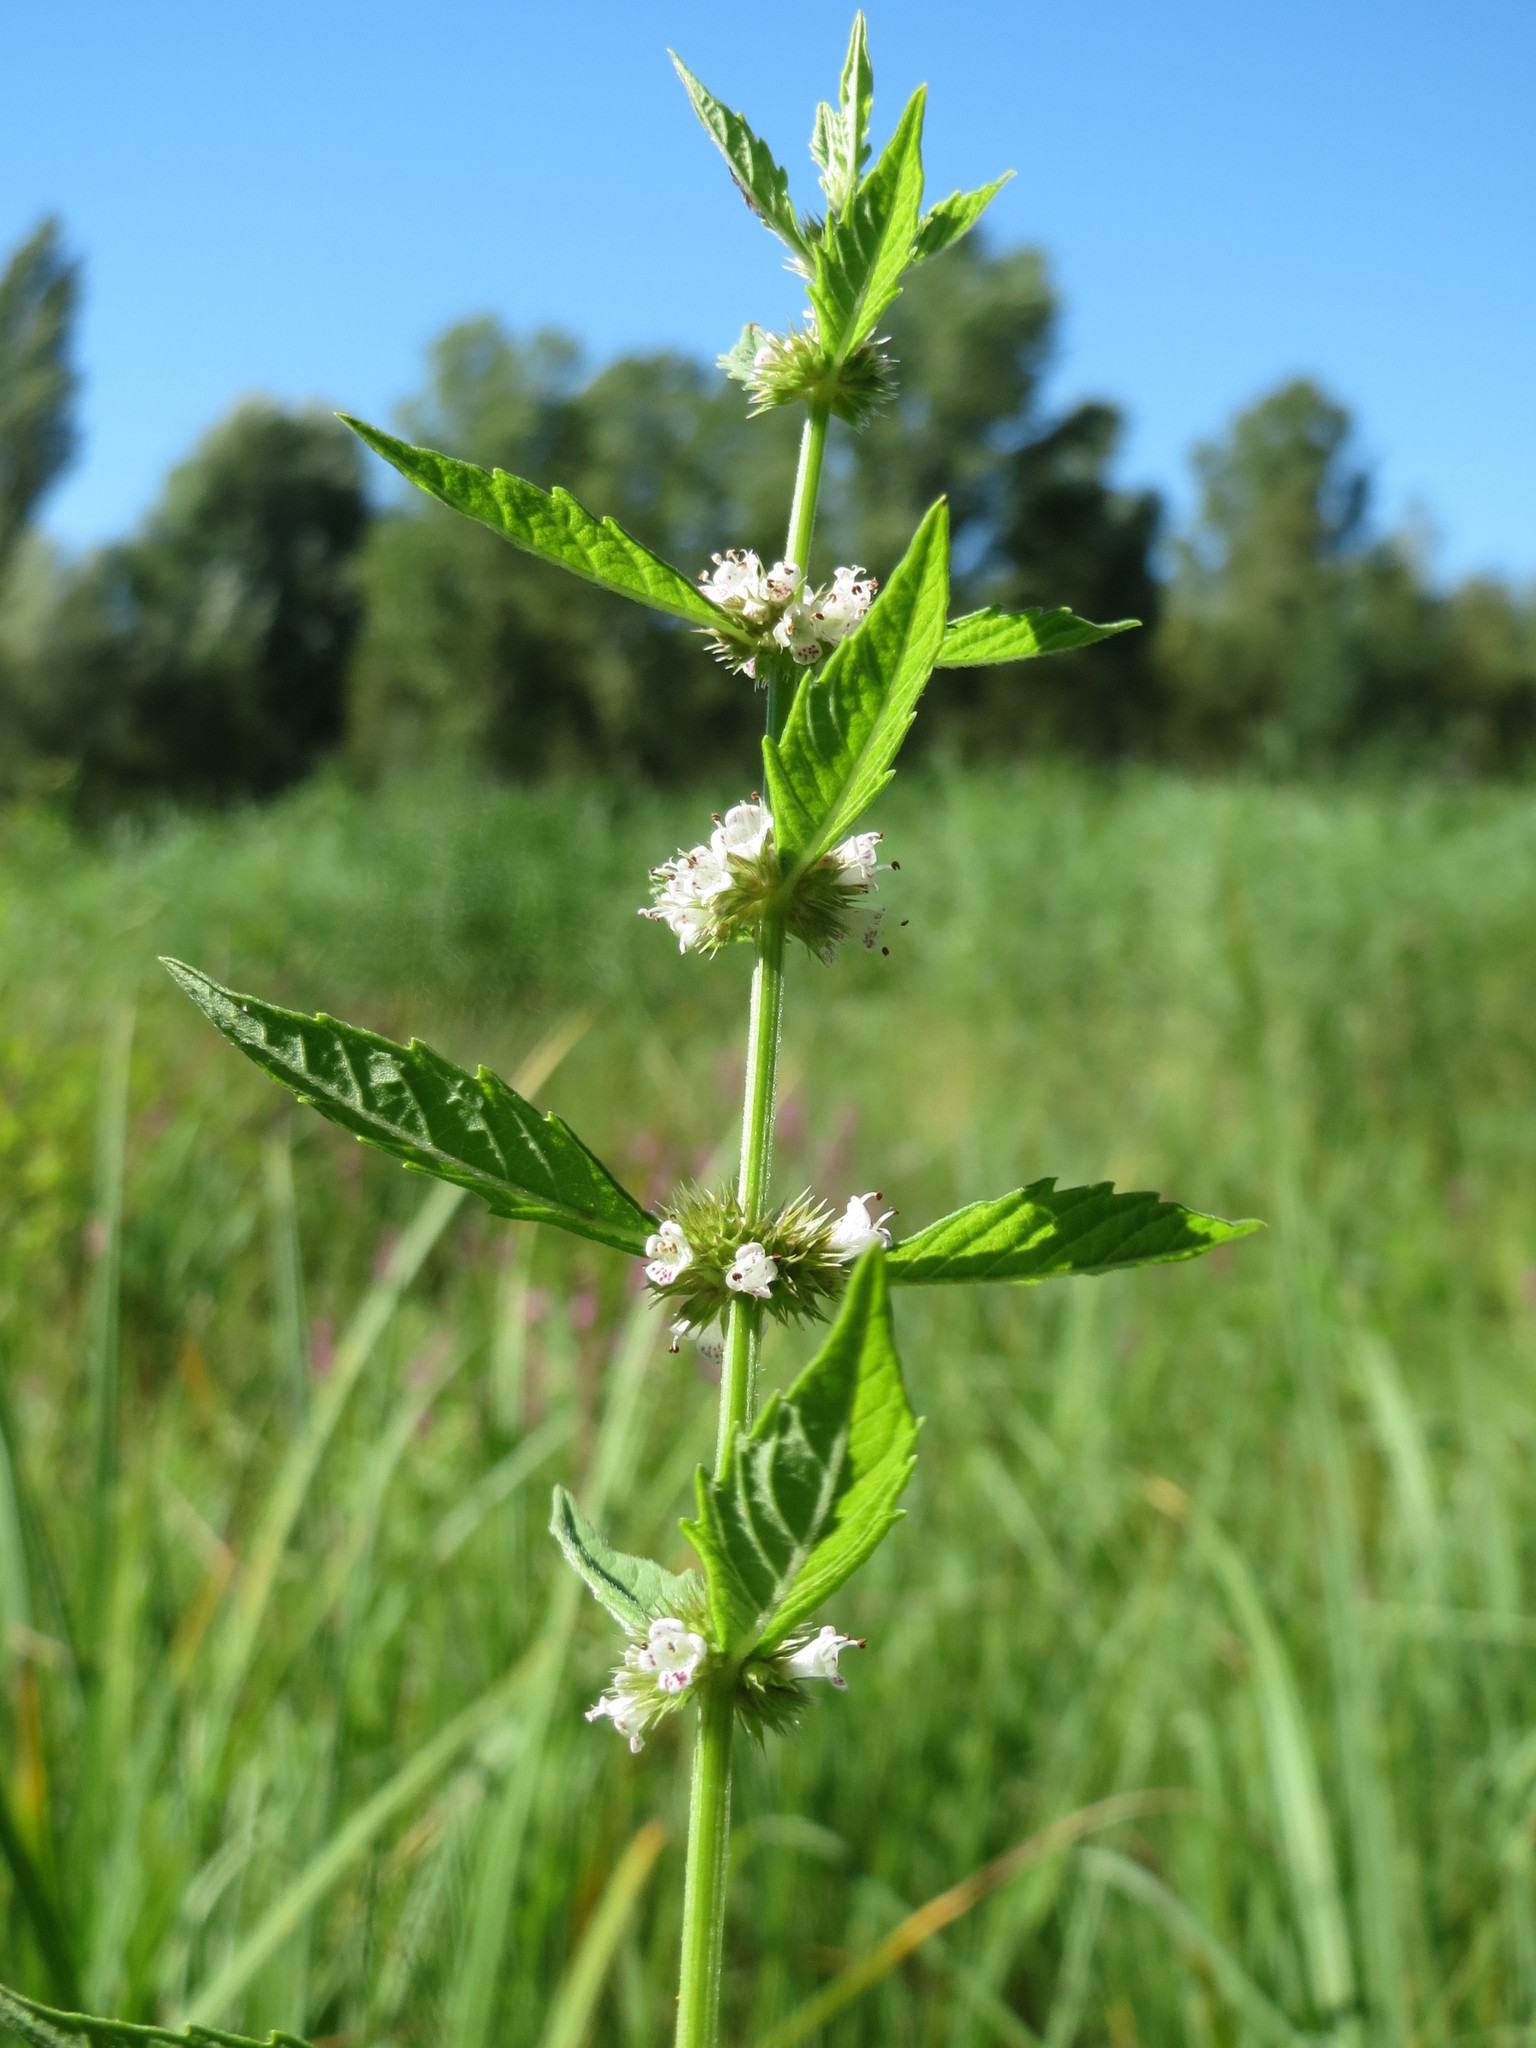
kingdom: Plantae
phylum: Tracheophyta
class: Magnoliopsida
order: Lamiales
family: Lamiaceae
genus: Lycopus
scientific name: Lycopus europaeus
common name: European bugleweed
